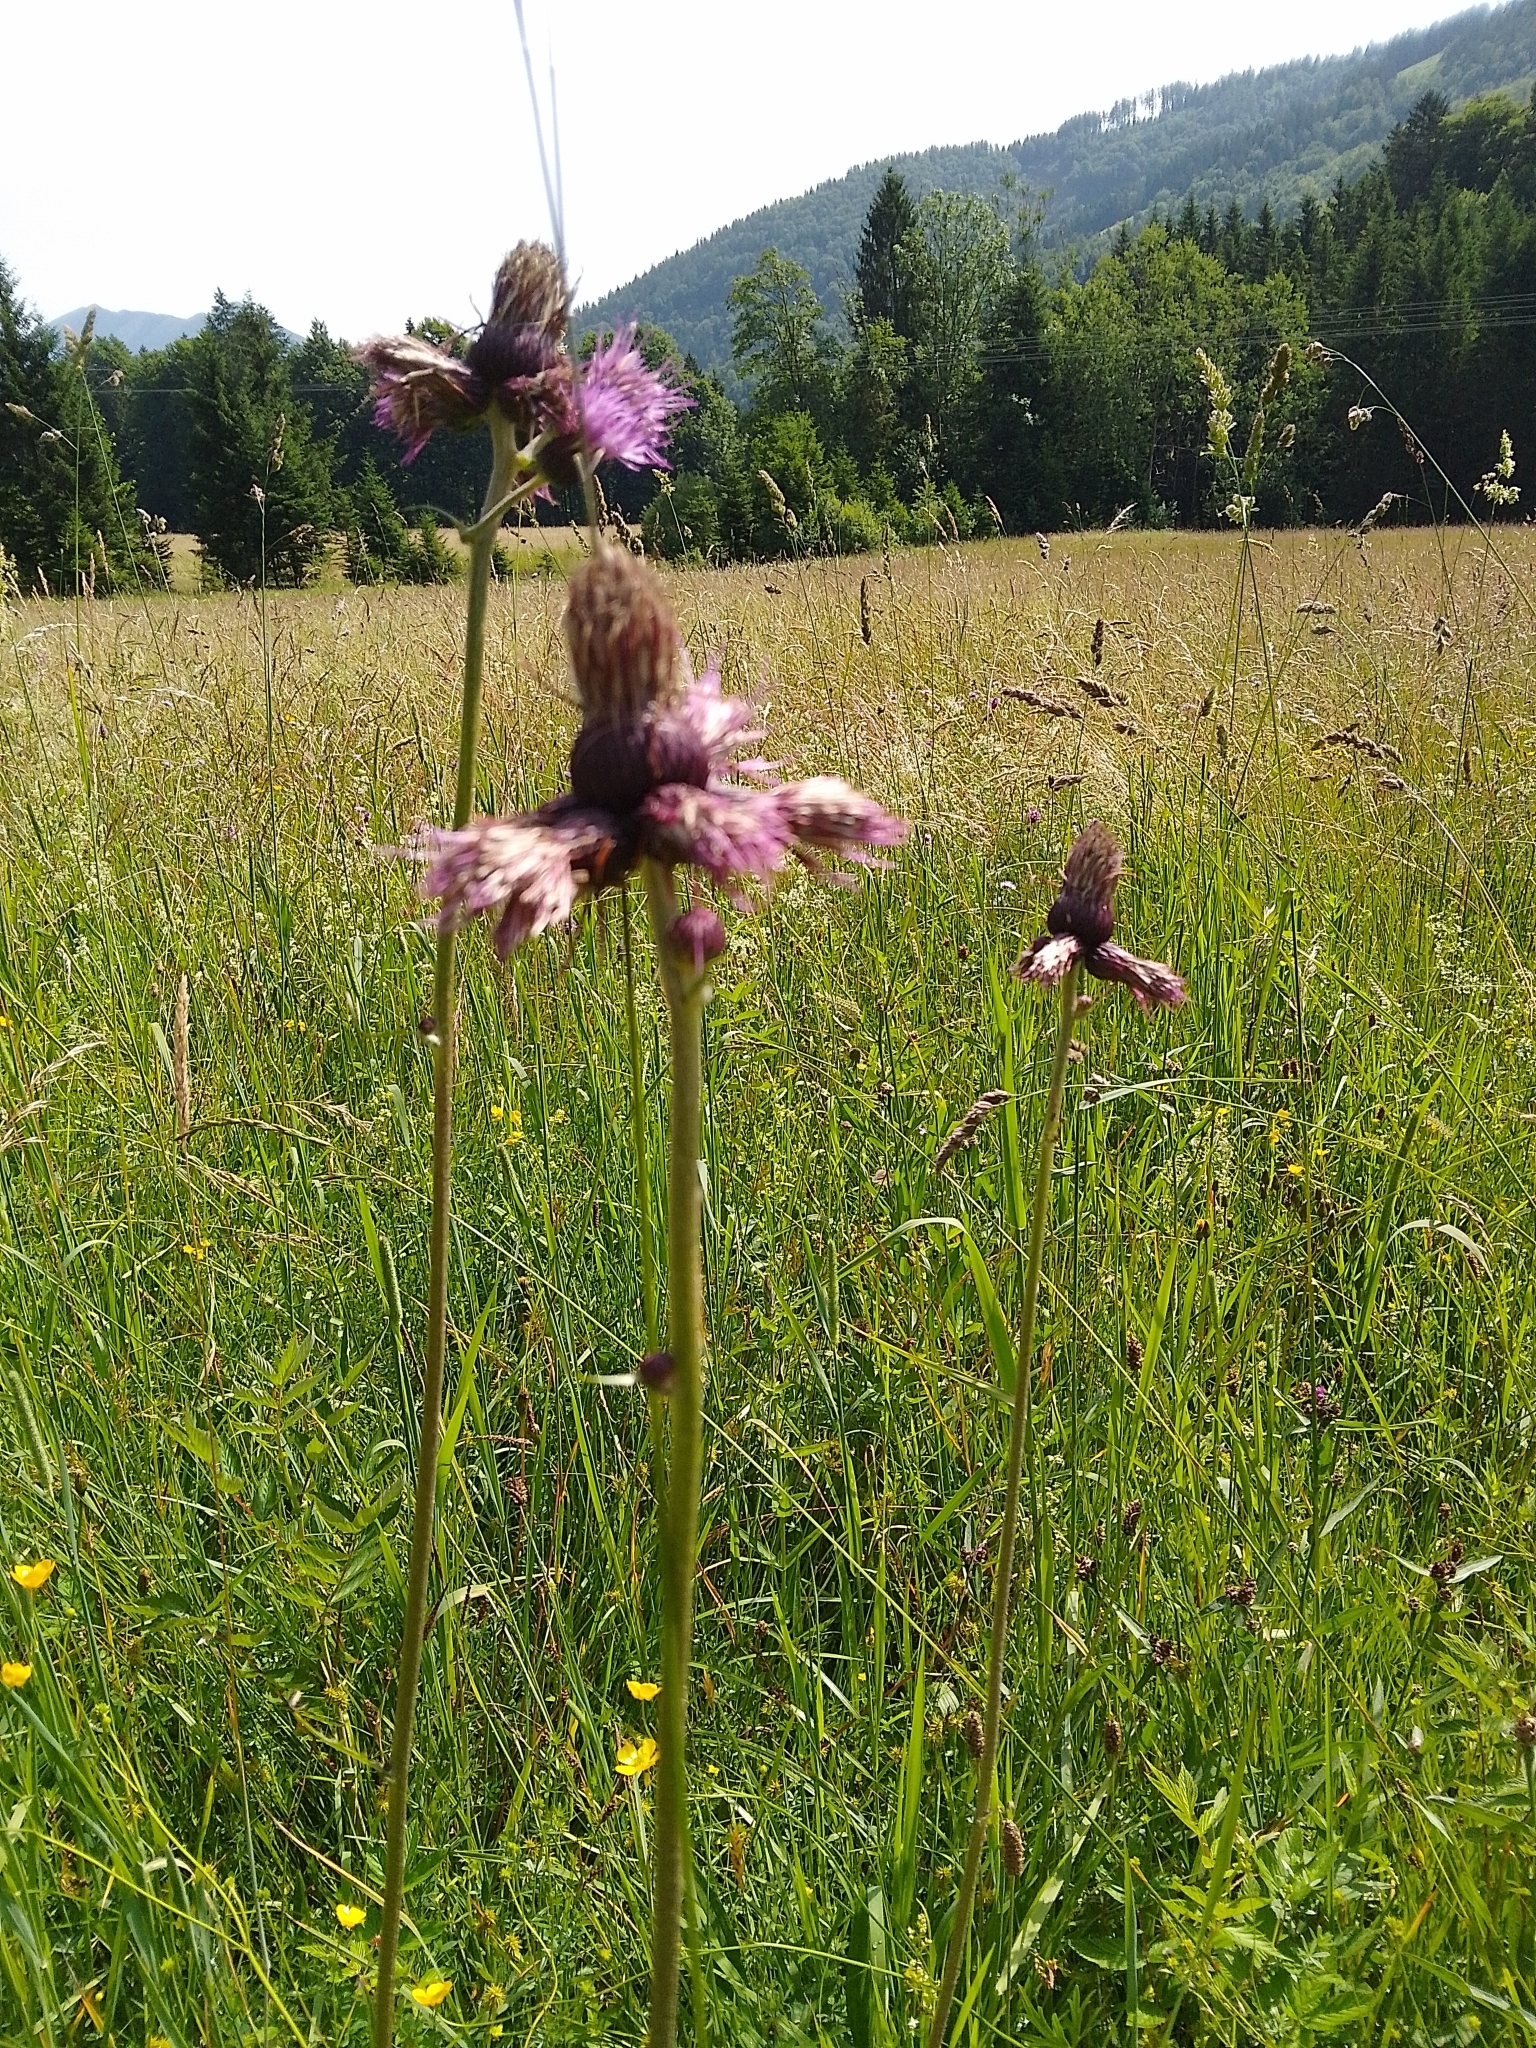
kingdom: Plantae
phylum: Tracheophyta
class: Magnoliopsida
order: Asterales
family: Asteraceae
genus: Cirsium
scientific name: Cirsium rivulare
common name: Brook thistle
